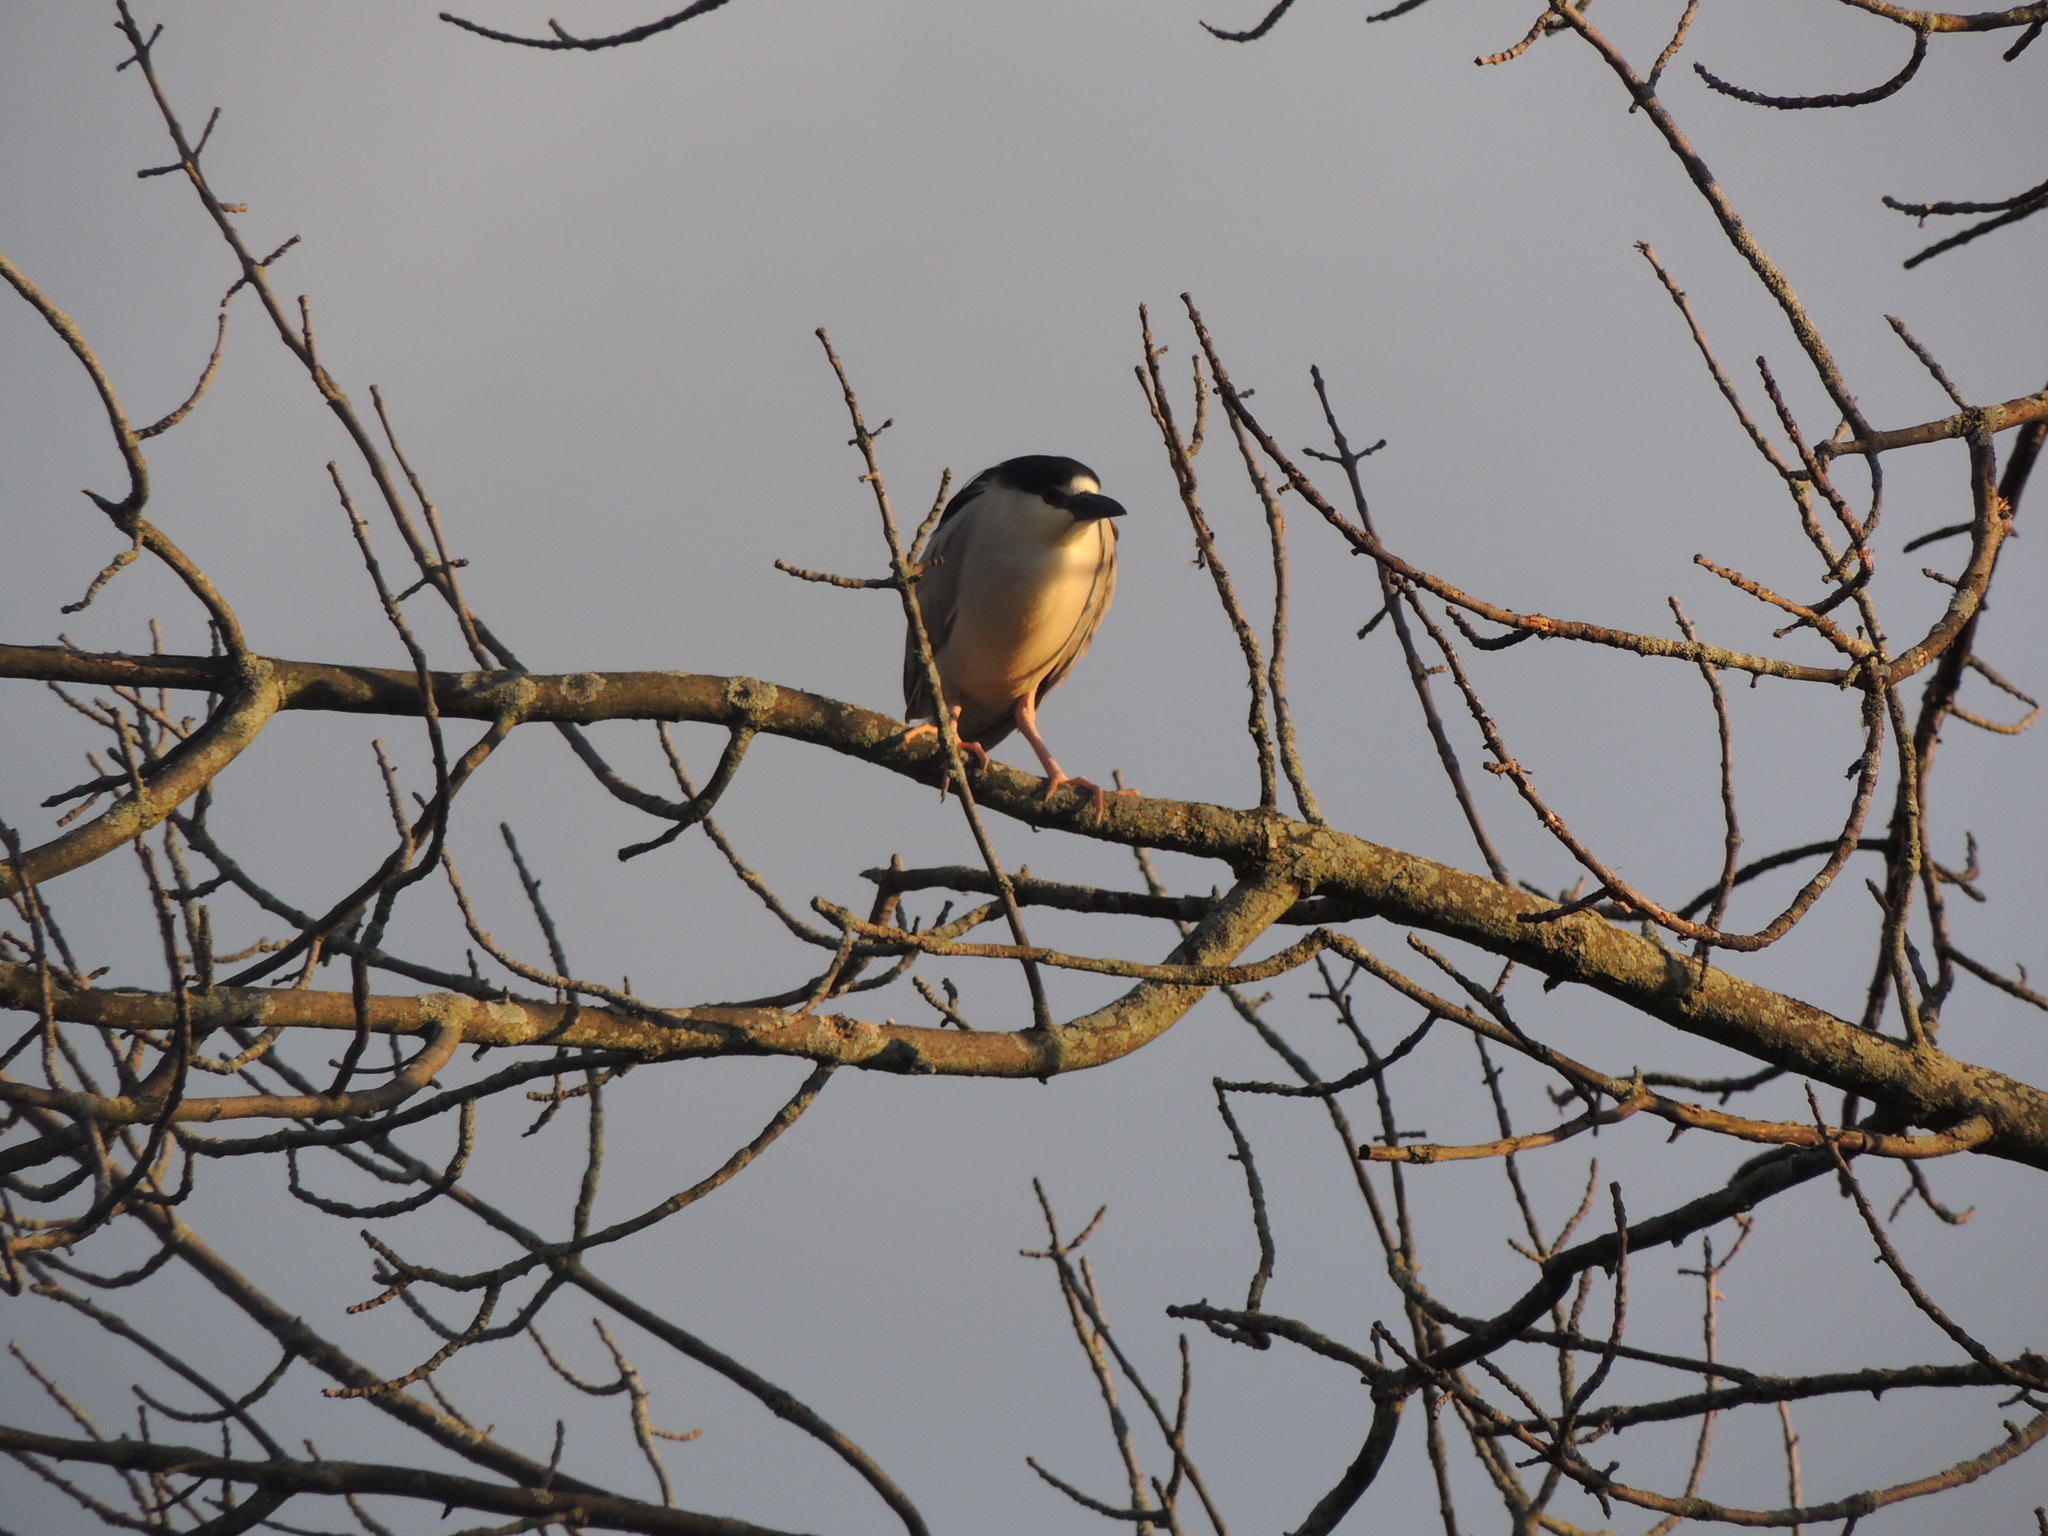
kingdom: Animalia
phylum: Chordata
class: Aves
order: Pelecaniformes
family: Ardeidae
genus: Nycticorax
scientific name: Nycticorax nycticorax
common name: Black-crowned night heron
